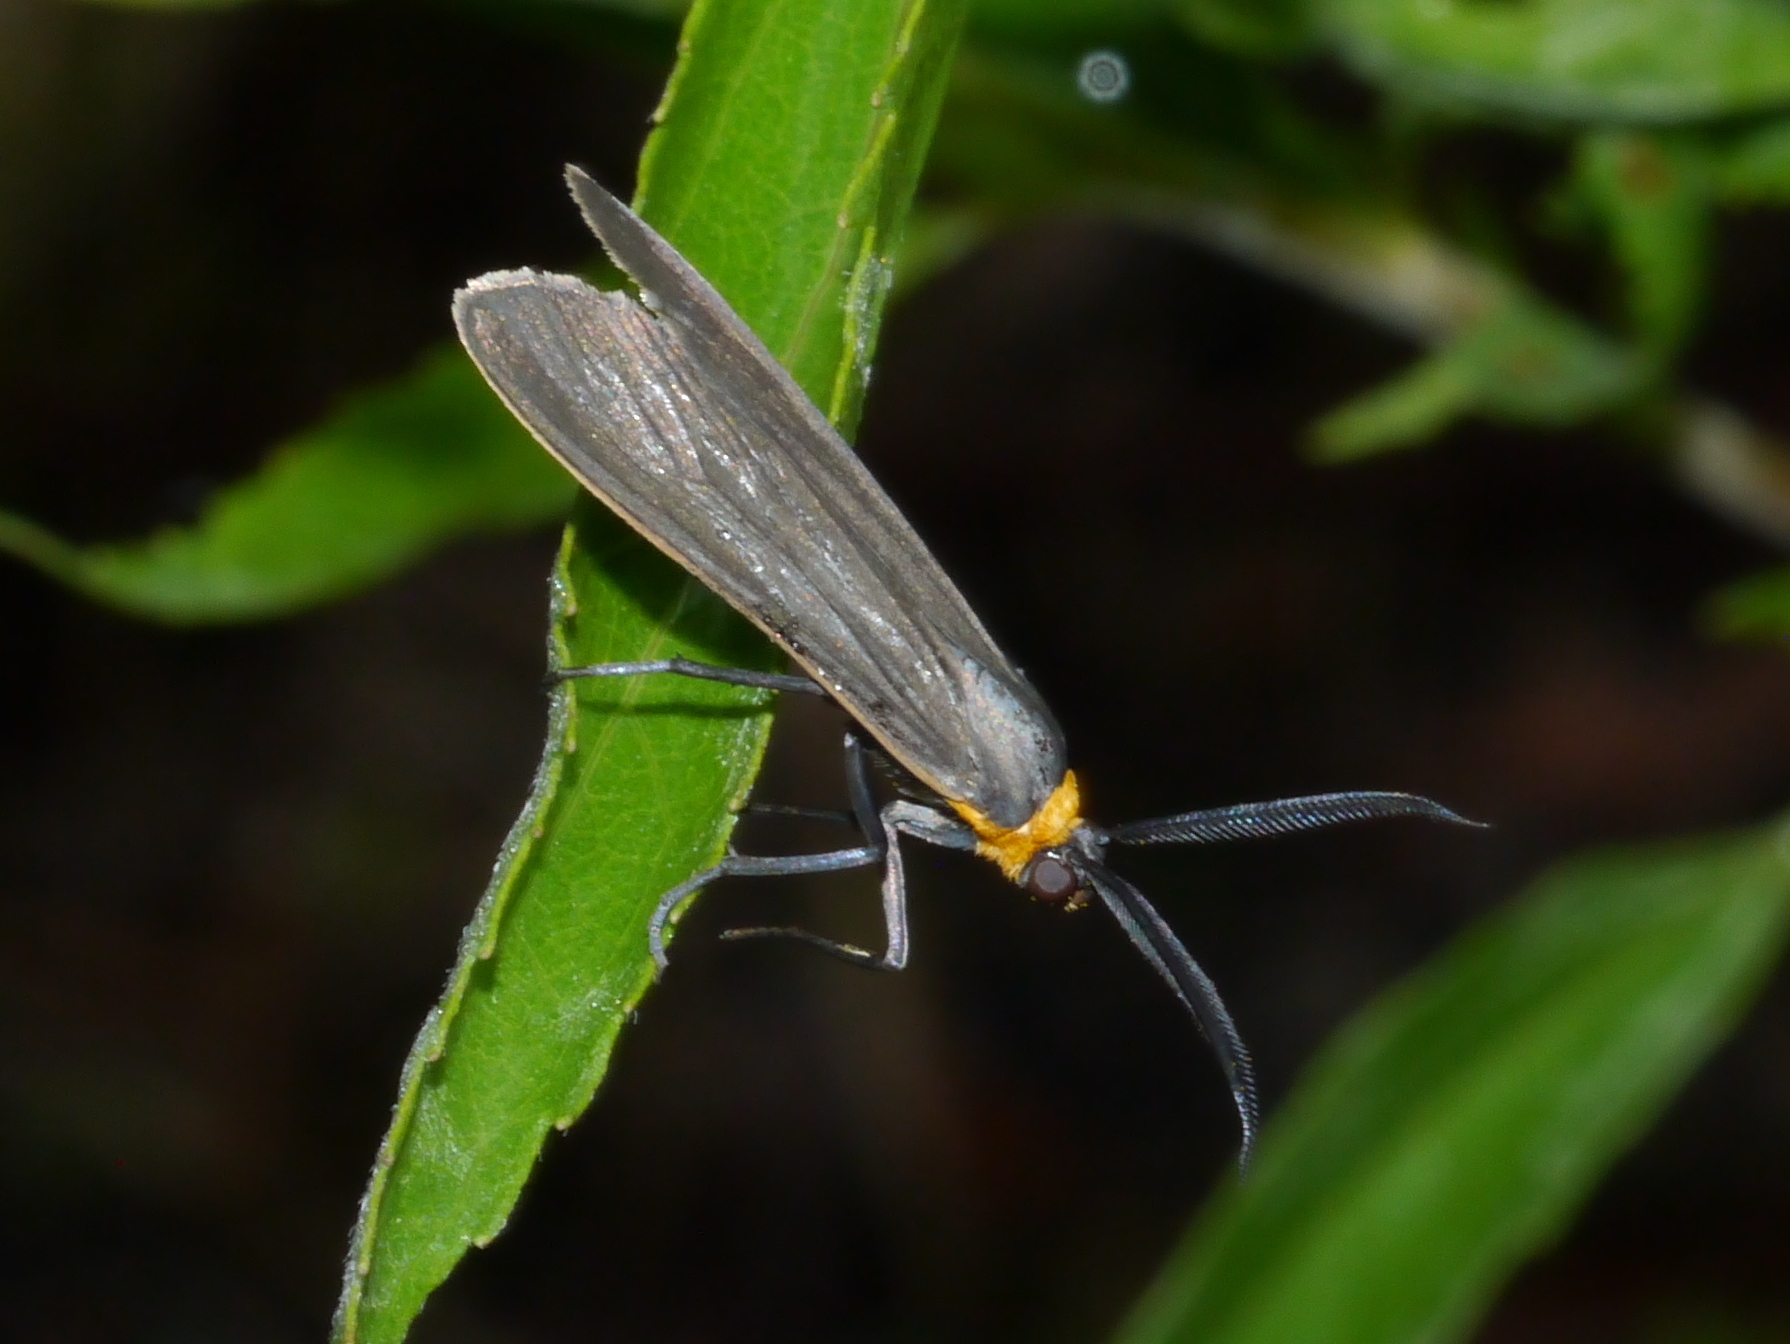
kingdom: Animalia
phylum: Arthropoda
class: Insecta
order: Lepidoptera
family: Erebidae
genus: Cisseps
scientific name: Cisseps fulvicollis
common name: Yellow-collared scape moth
